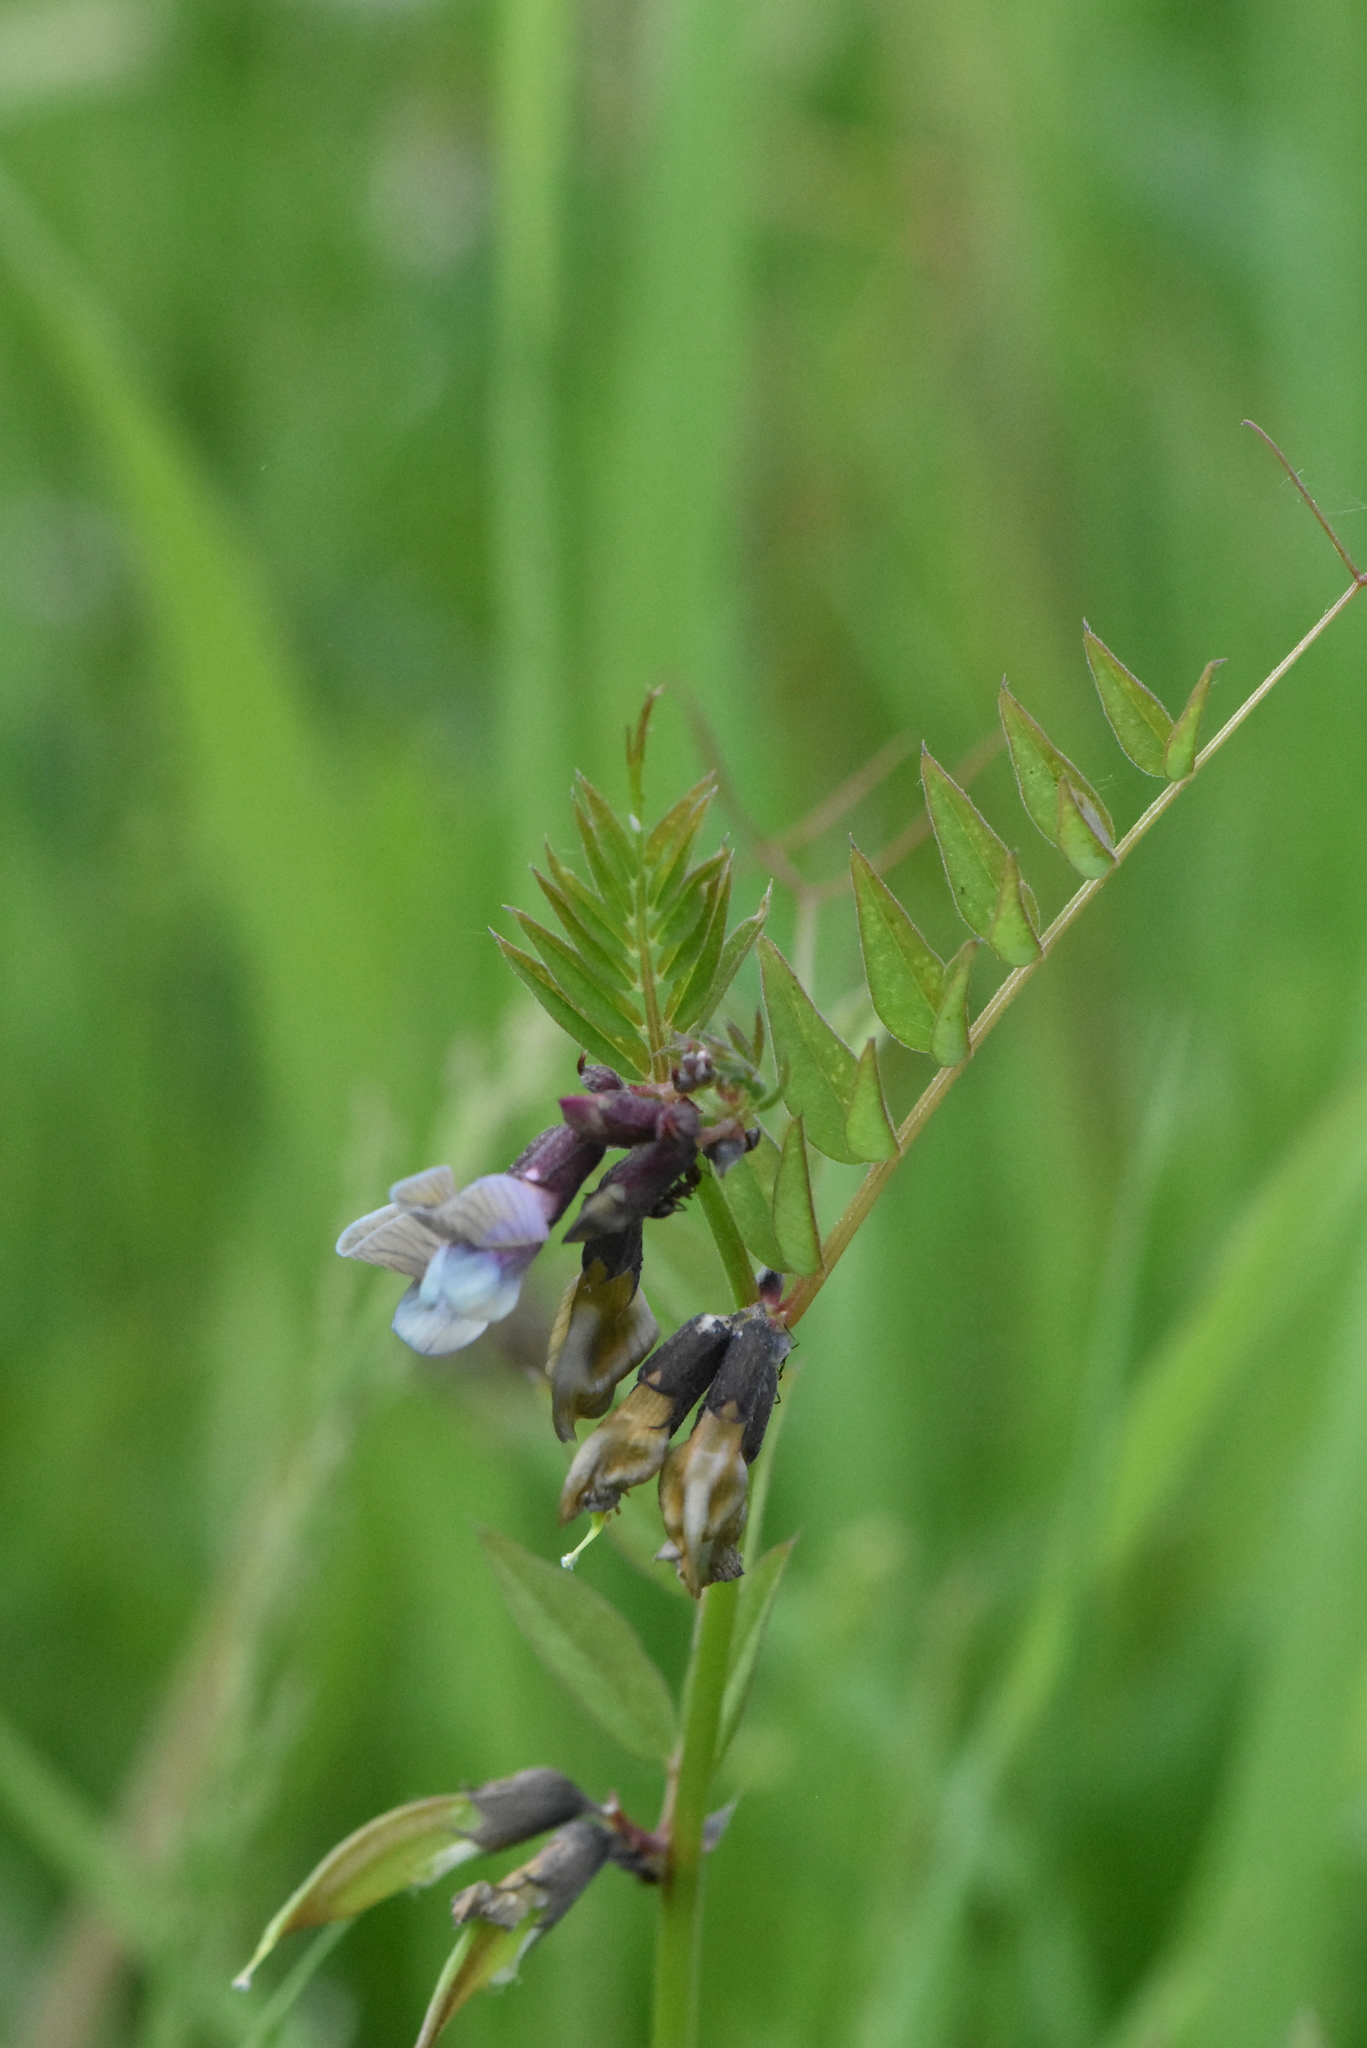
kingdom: Plantae
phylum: Tracheophyta
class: Magnoliopsida
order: Fabales
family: Fabaceae
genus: Vicia
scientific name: Vicia sepium
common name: Bush vetch
